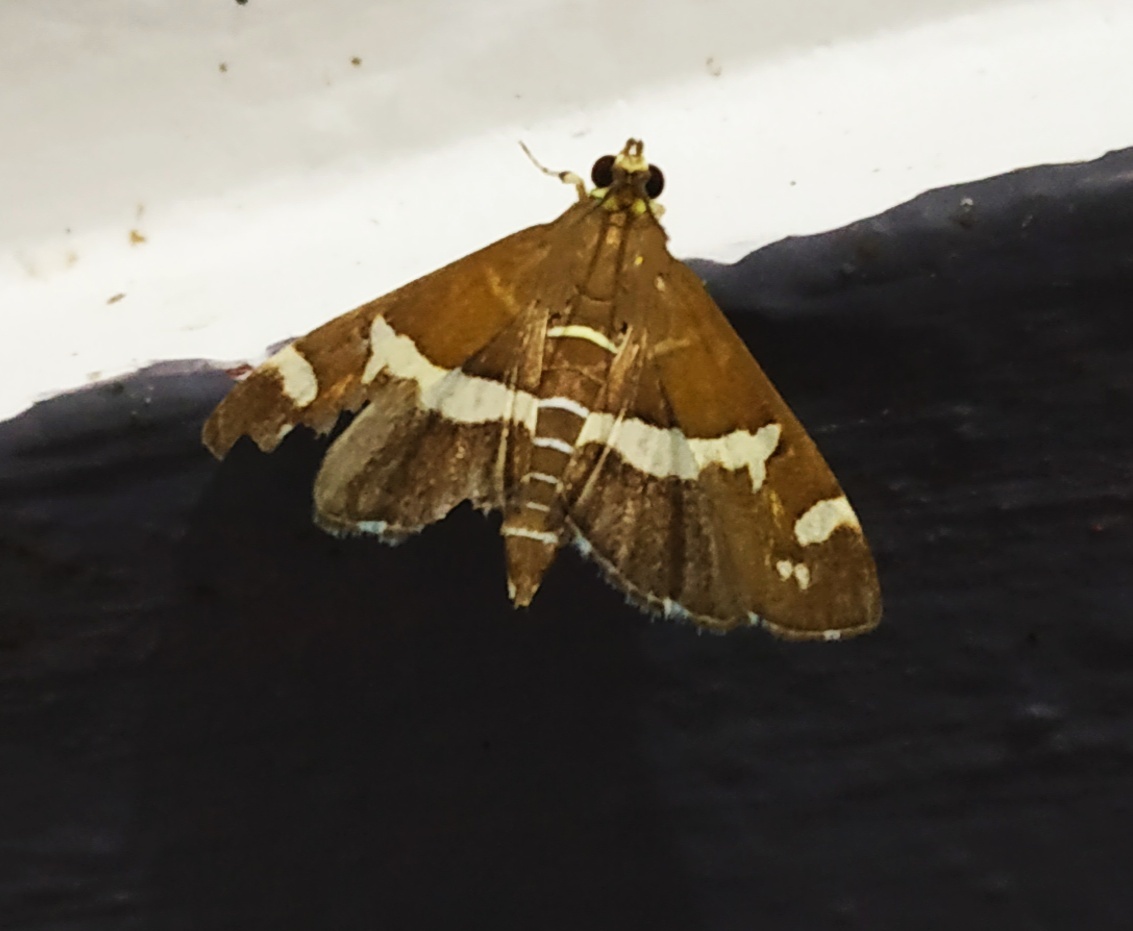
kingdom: Animalia
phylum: Arthropoda
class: Insecta
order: Lepidoptera
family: Crambidae
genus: Spoladea
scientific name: Spoladea recurvalis
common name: Beet webworm moth
